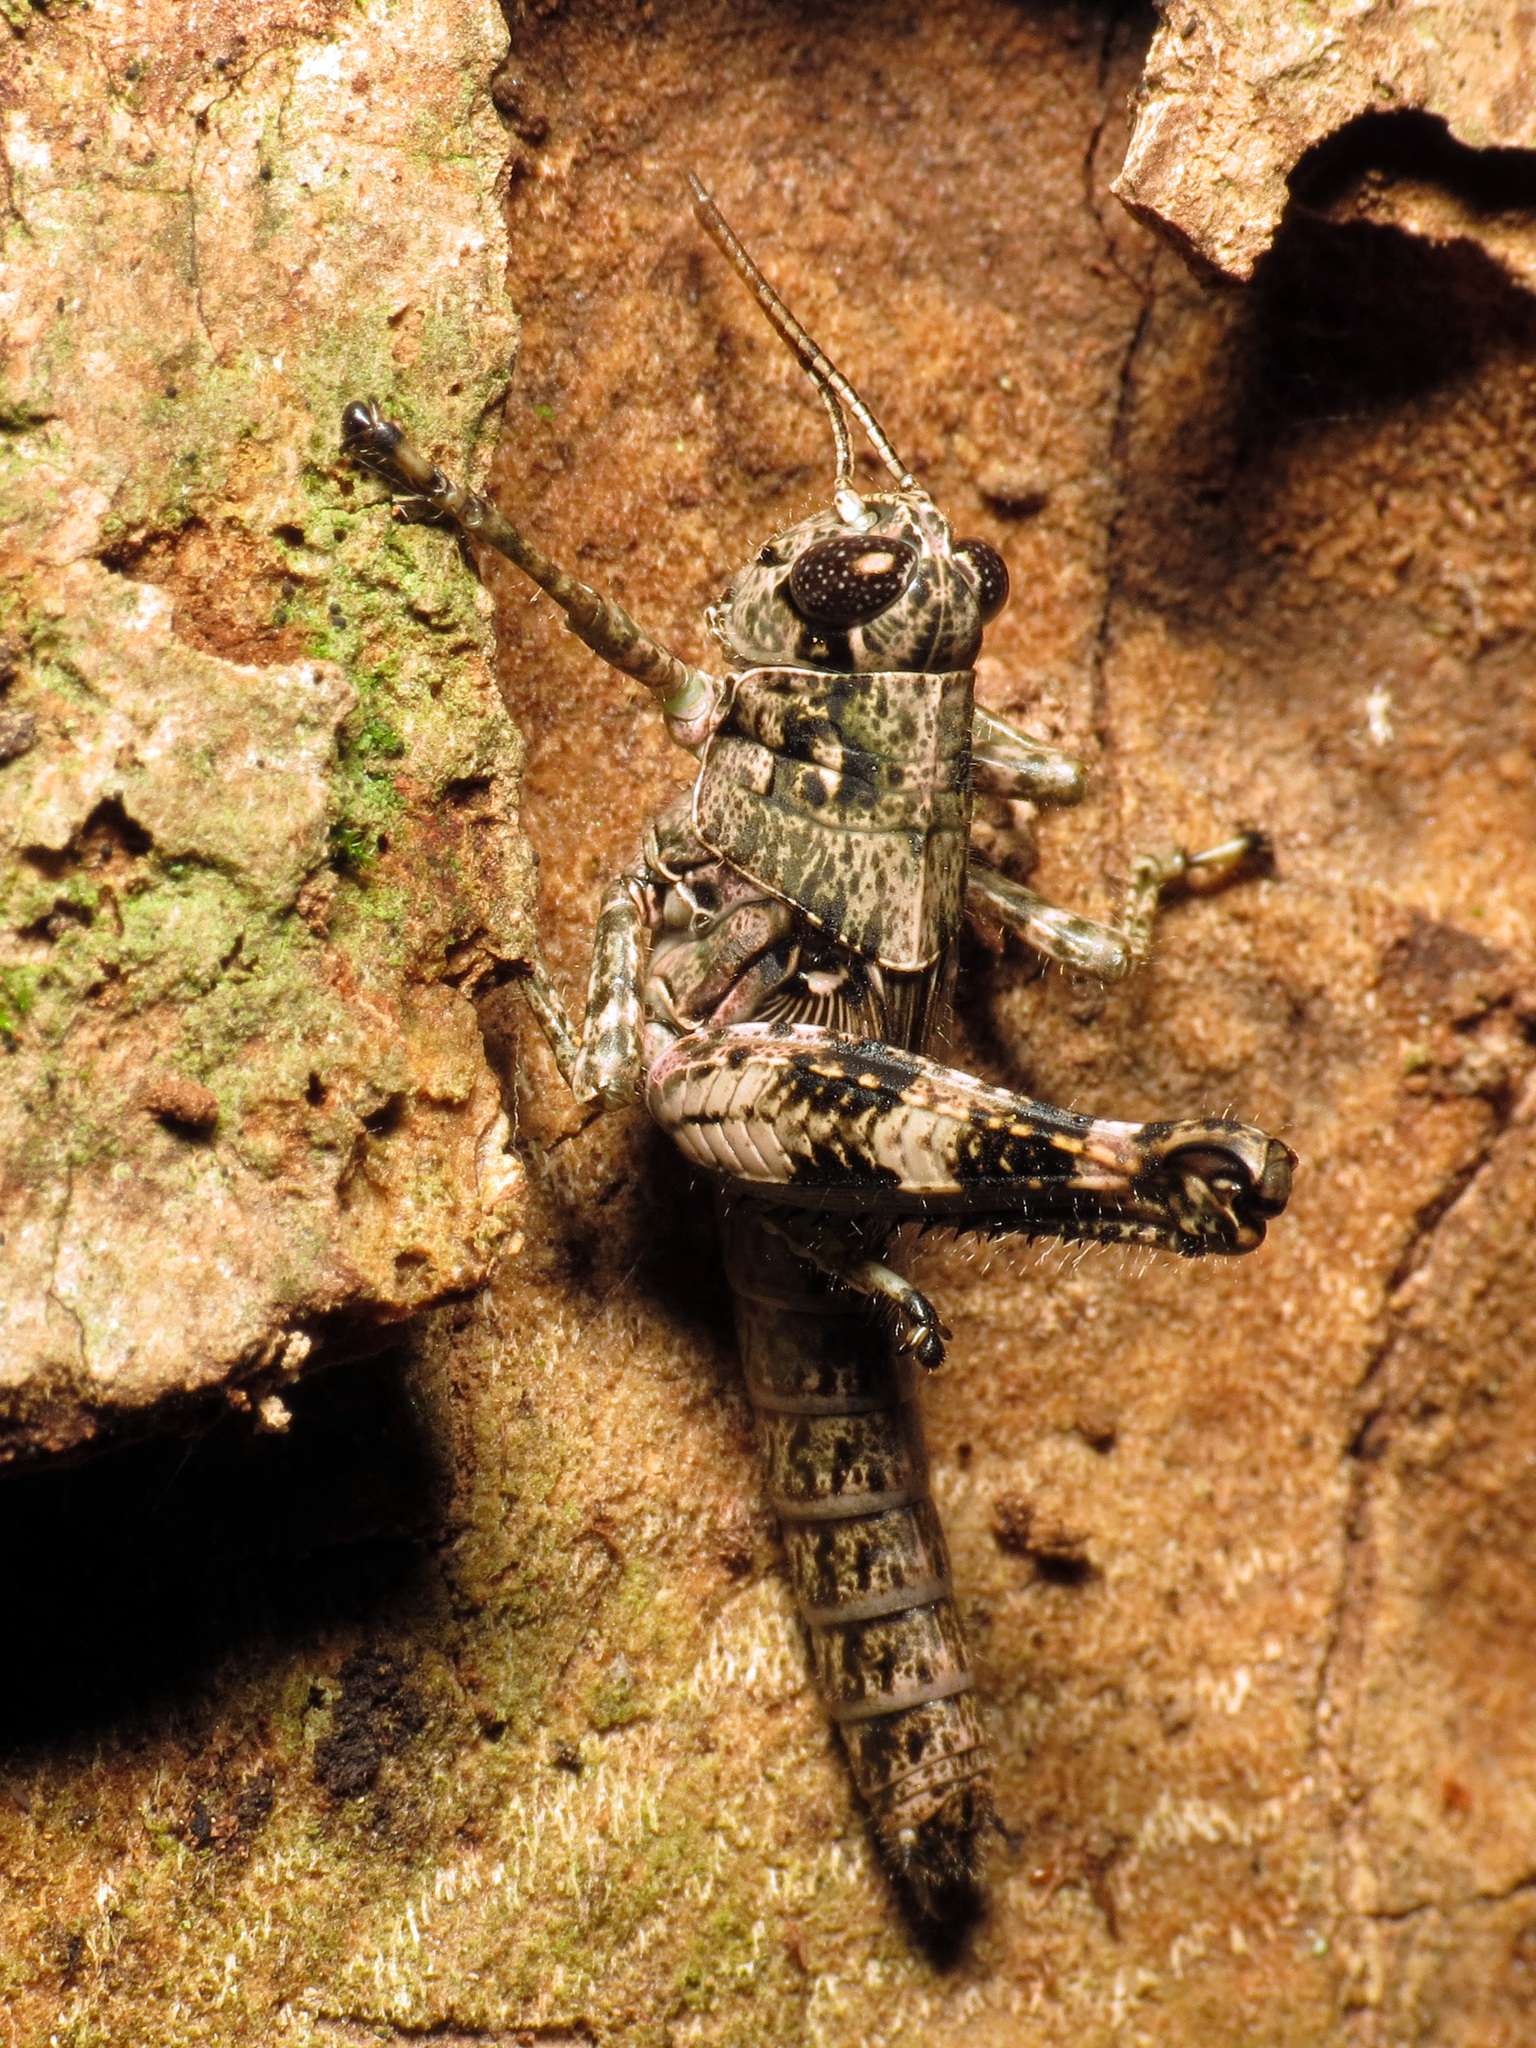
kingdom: Animalia
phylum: Arthropoda
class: Insecta
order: Orthoptera
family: Acrididae
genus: Melanoplus
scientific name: Melanoplus punctulatus
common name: Pine-tree spur-throat grasshopper
